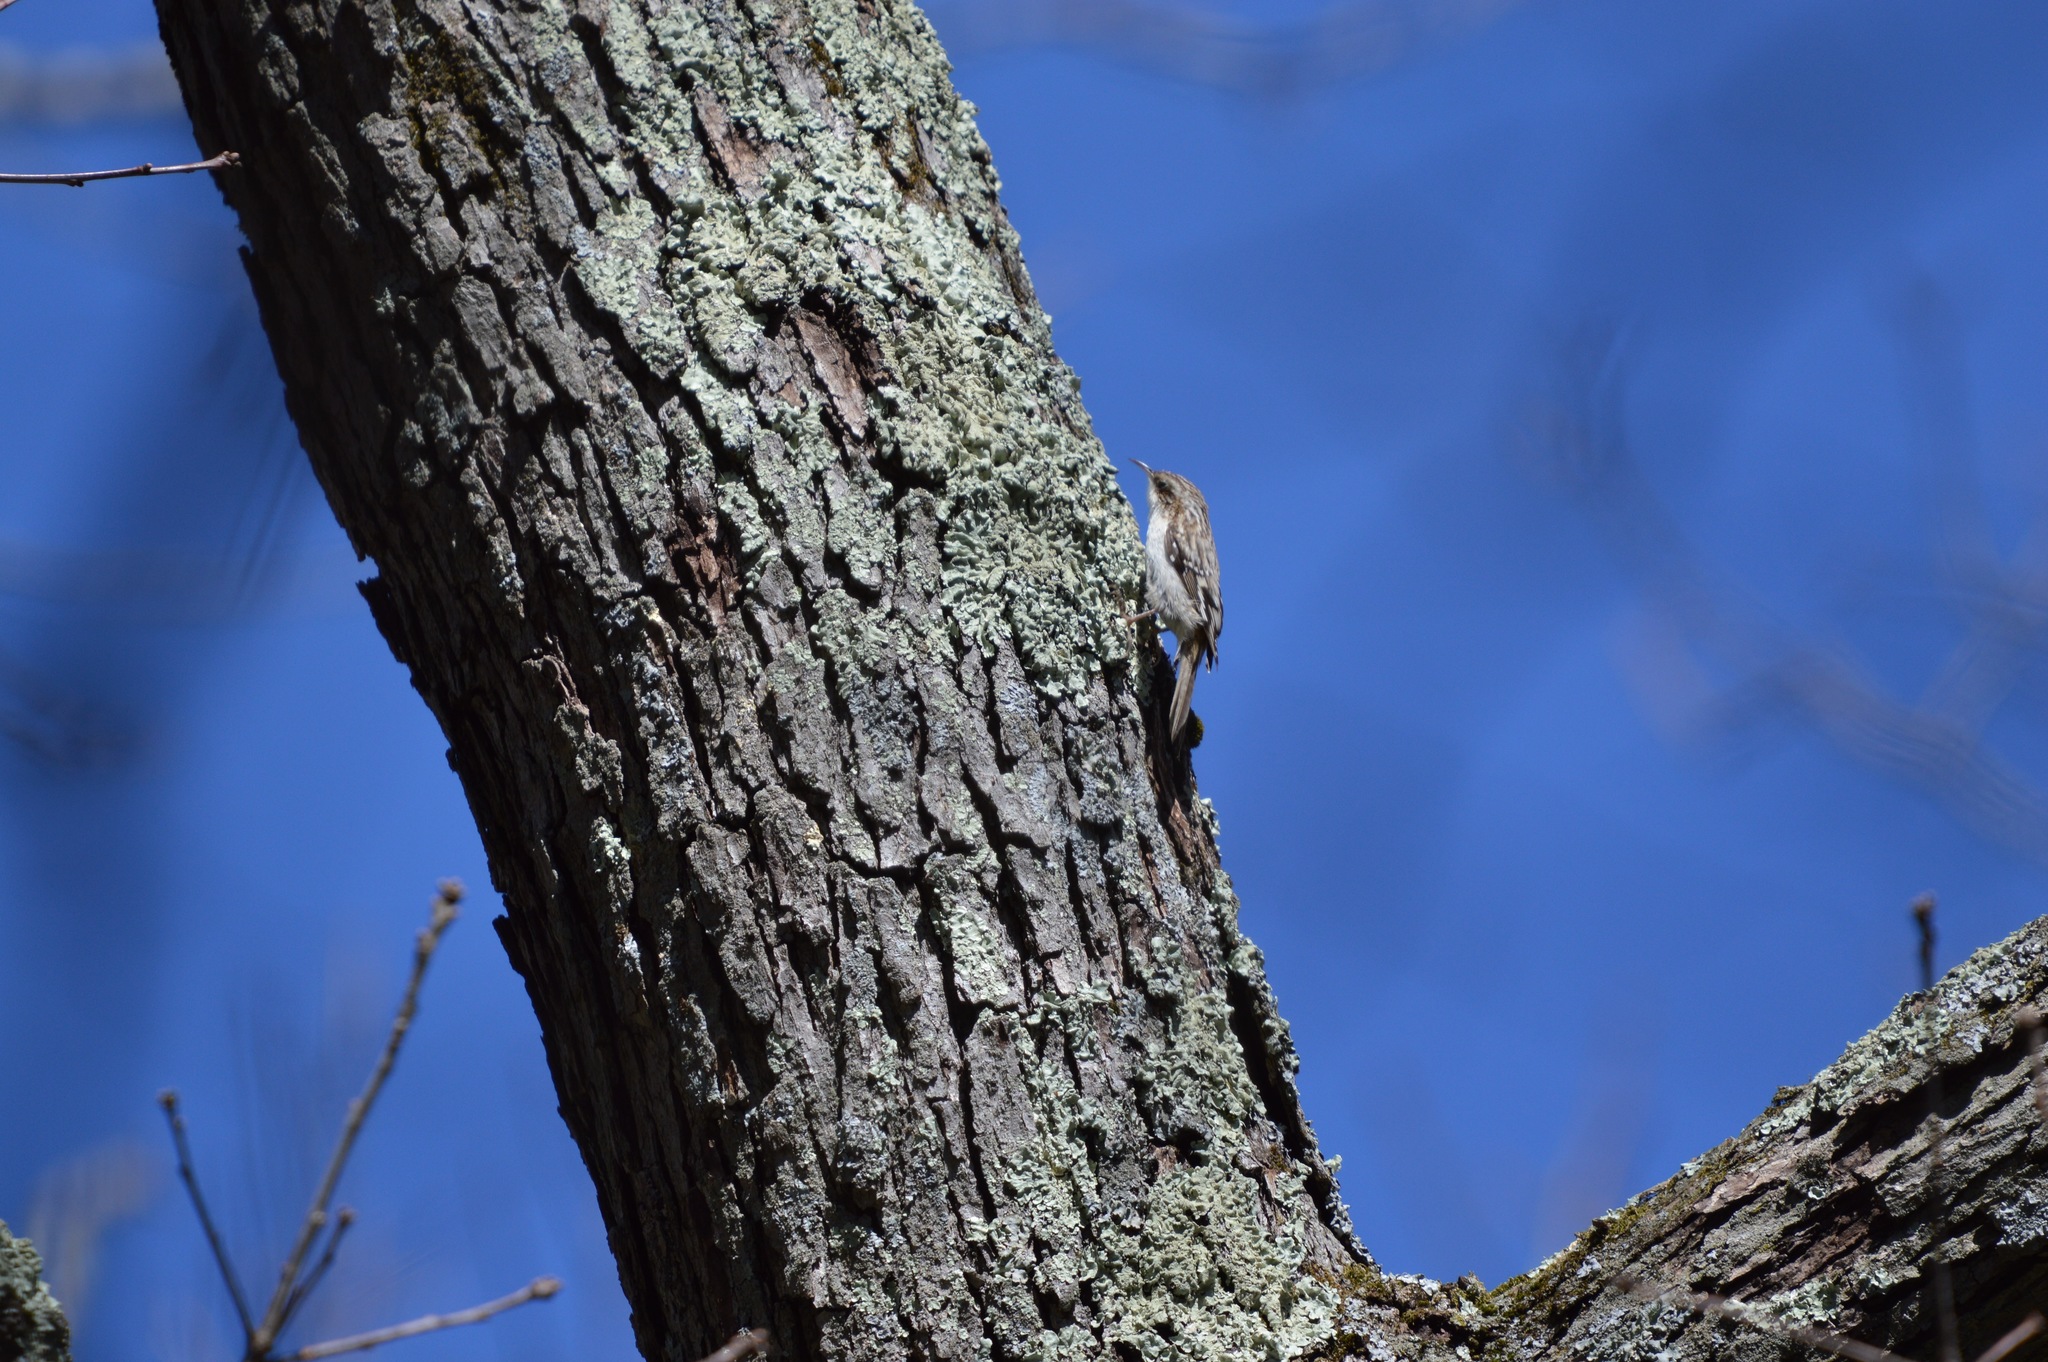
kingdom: Animalia
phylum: Chordata
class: Aves
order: Passeriformes
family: Certhiidae
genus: Certhia
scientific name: Certhia americana
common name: Brown creeper
